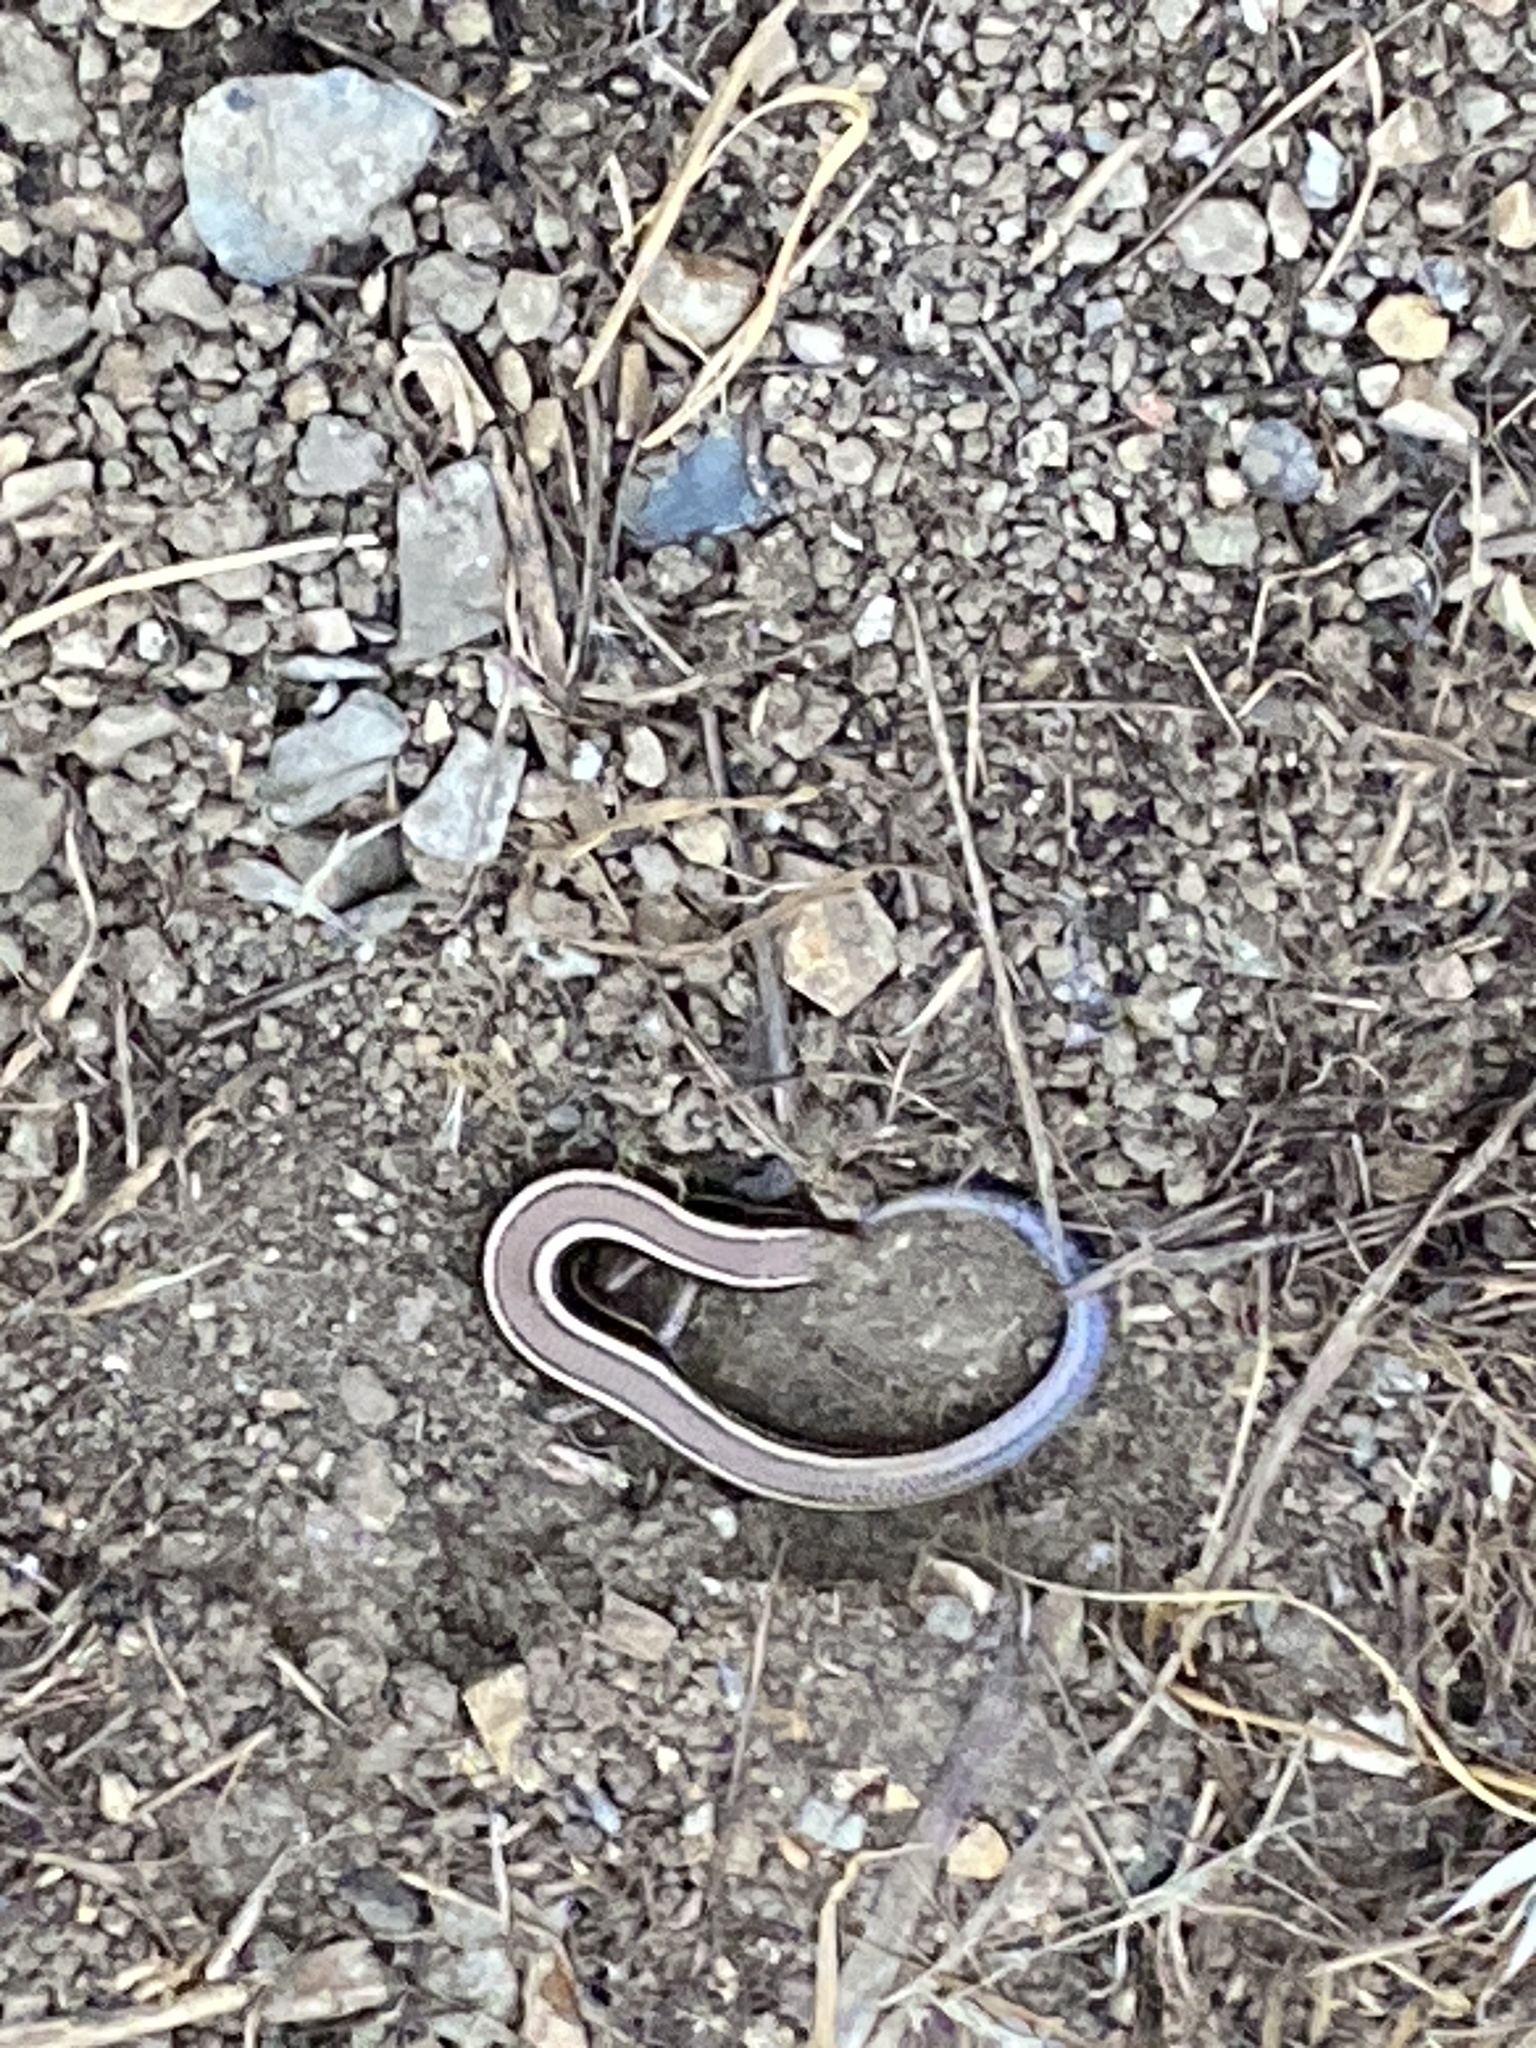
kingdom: Animalia
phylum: Chordata
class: Squamata
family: Scincidae
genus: Plestiodon
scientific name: Plestiodon skiltonianus
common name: Coronado island skink [interparietalis]
